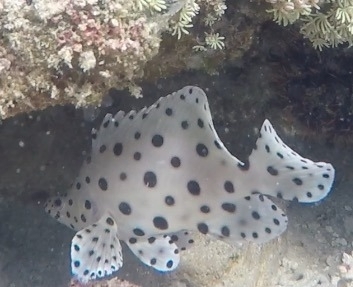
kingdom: Animalia
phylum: Chordata
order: Perciformes
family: Serranidae
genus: Cromileptes
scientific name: Cromileptes altivelis
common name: Humpback grouper
